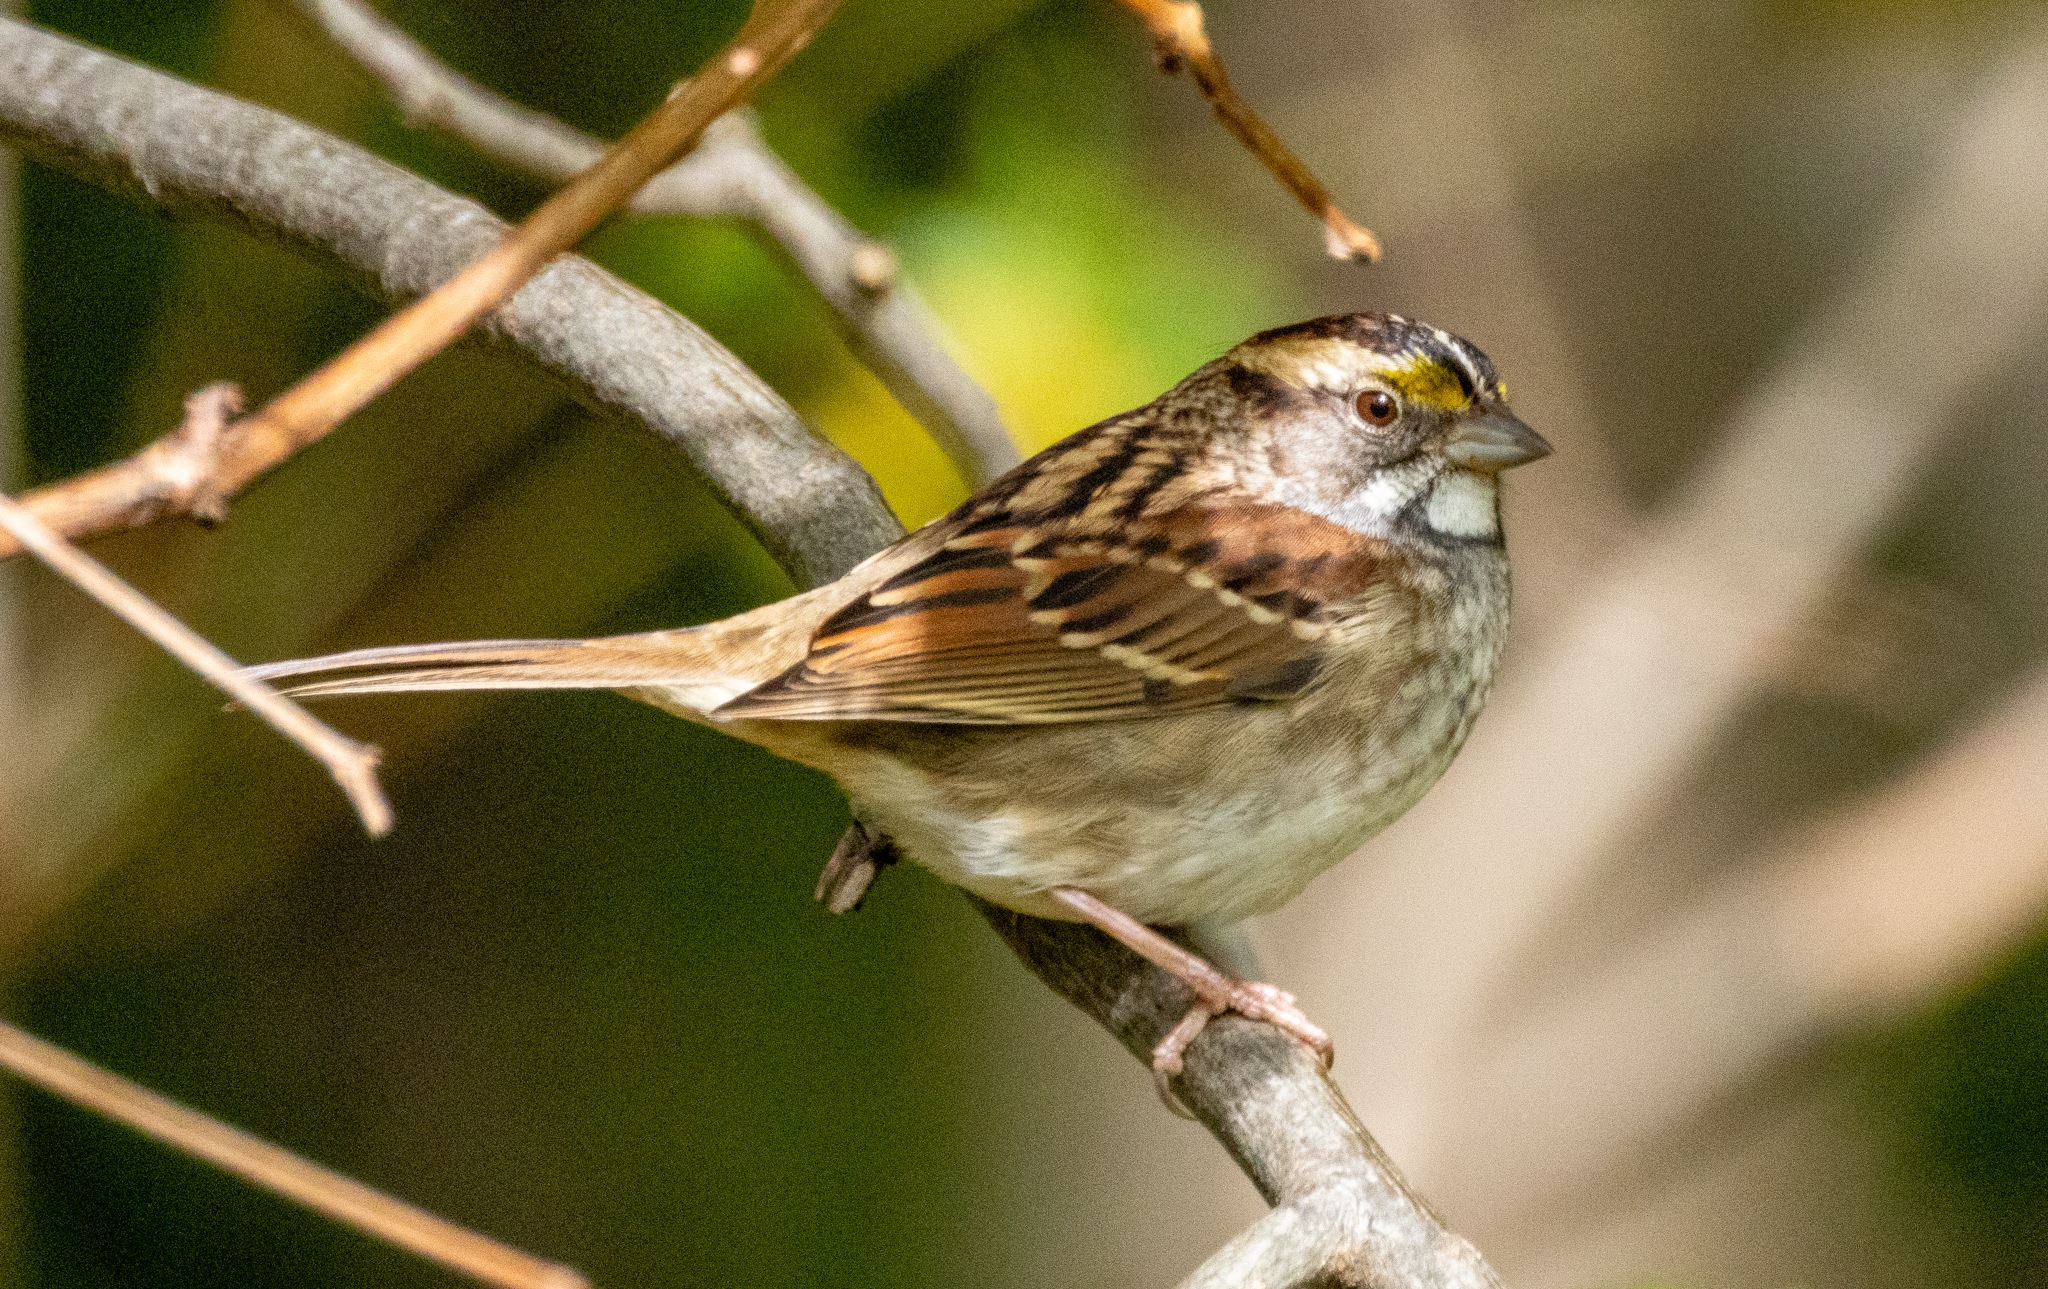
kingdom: Animalia
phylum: Chordata
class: Aves
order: Passeriformes
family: Passerellidae
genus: Zonotrichia
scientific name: Zonotrichia albicollis
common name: White-throated sparrow
